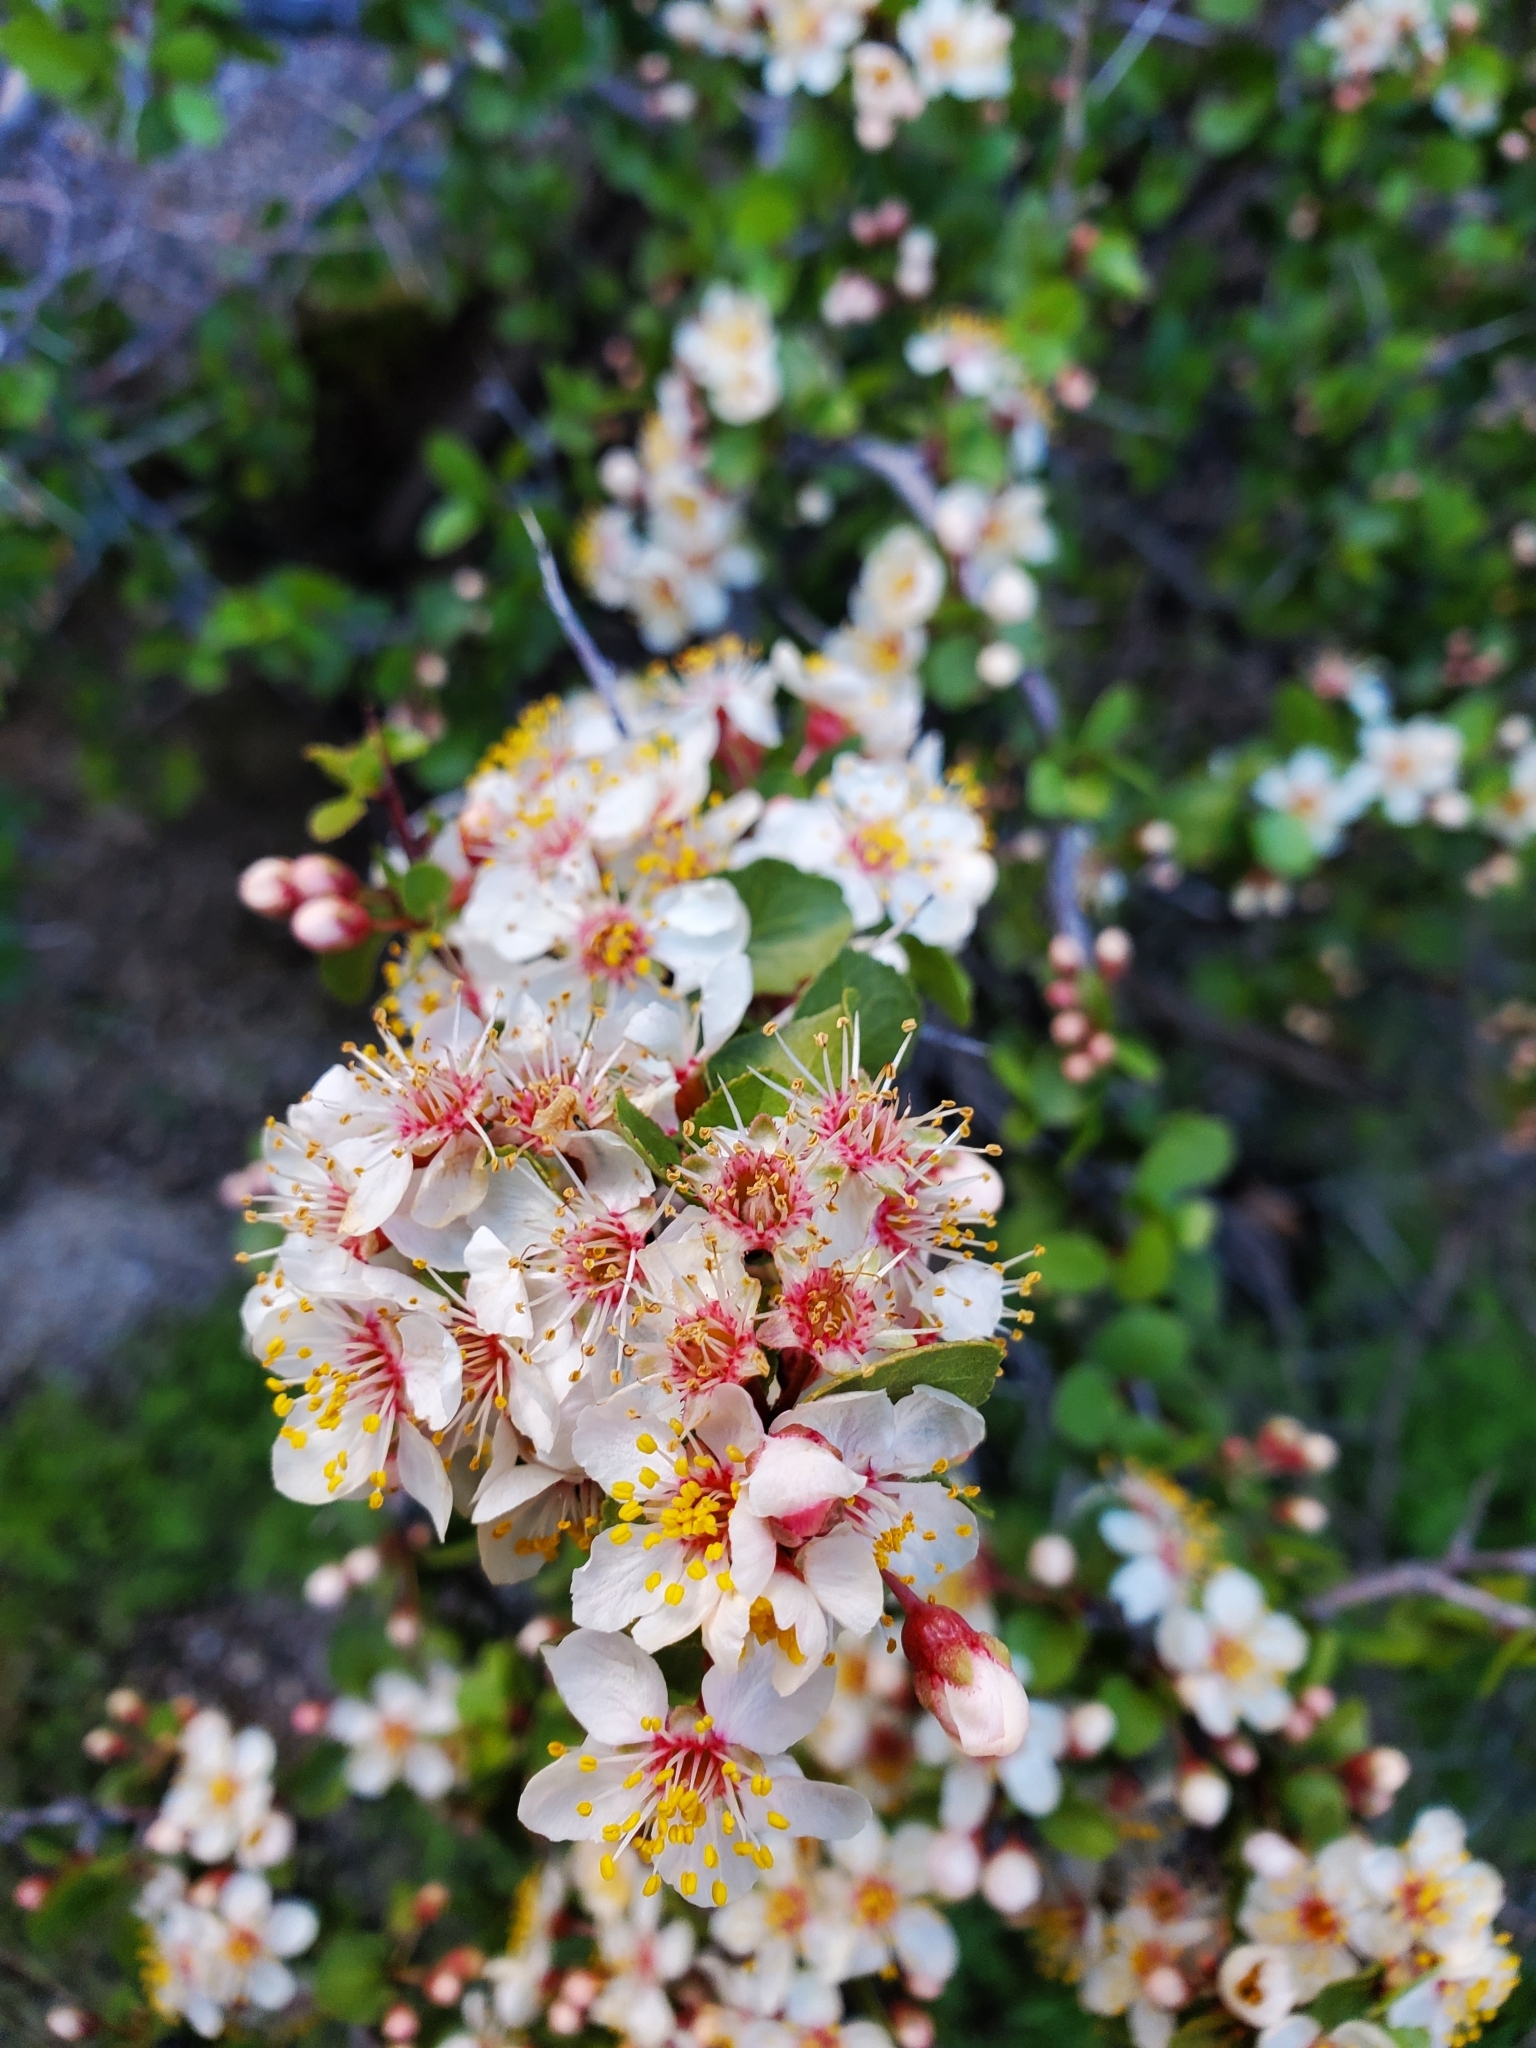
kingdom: Plantae
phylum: Tracheophyta
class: Magnoliopsida
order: Rosales
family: Rosaceae
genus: Prunus
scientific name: Prunus fremontii
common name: Desert apricot
